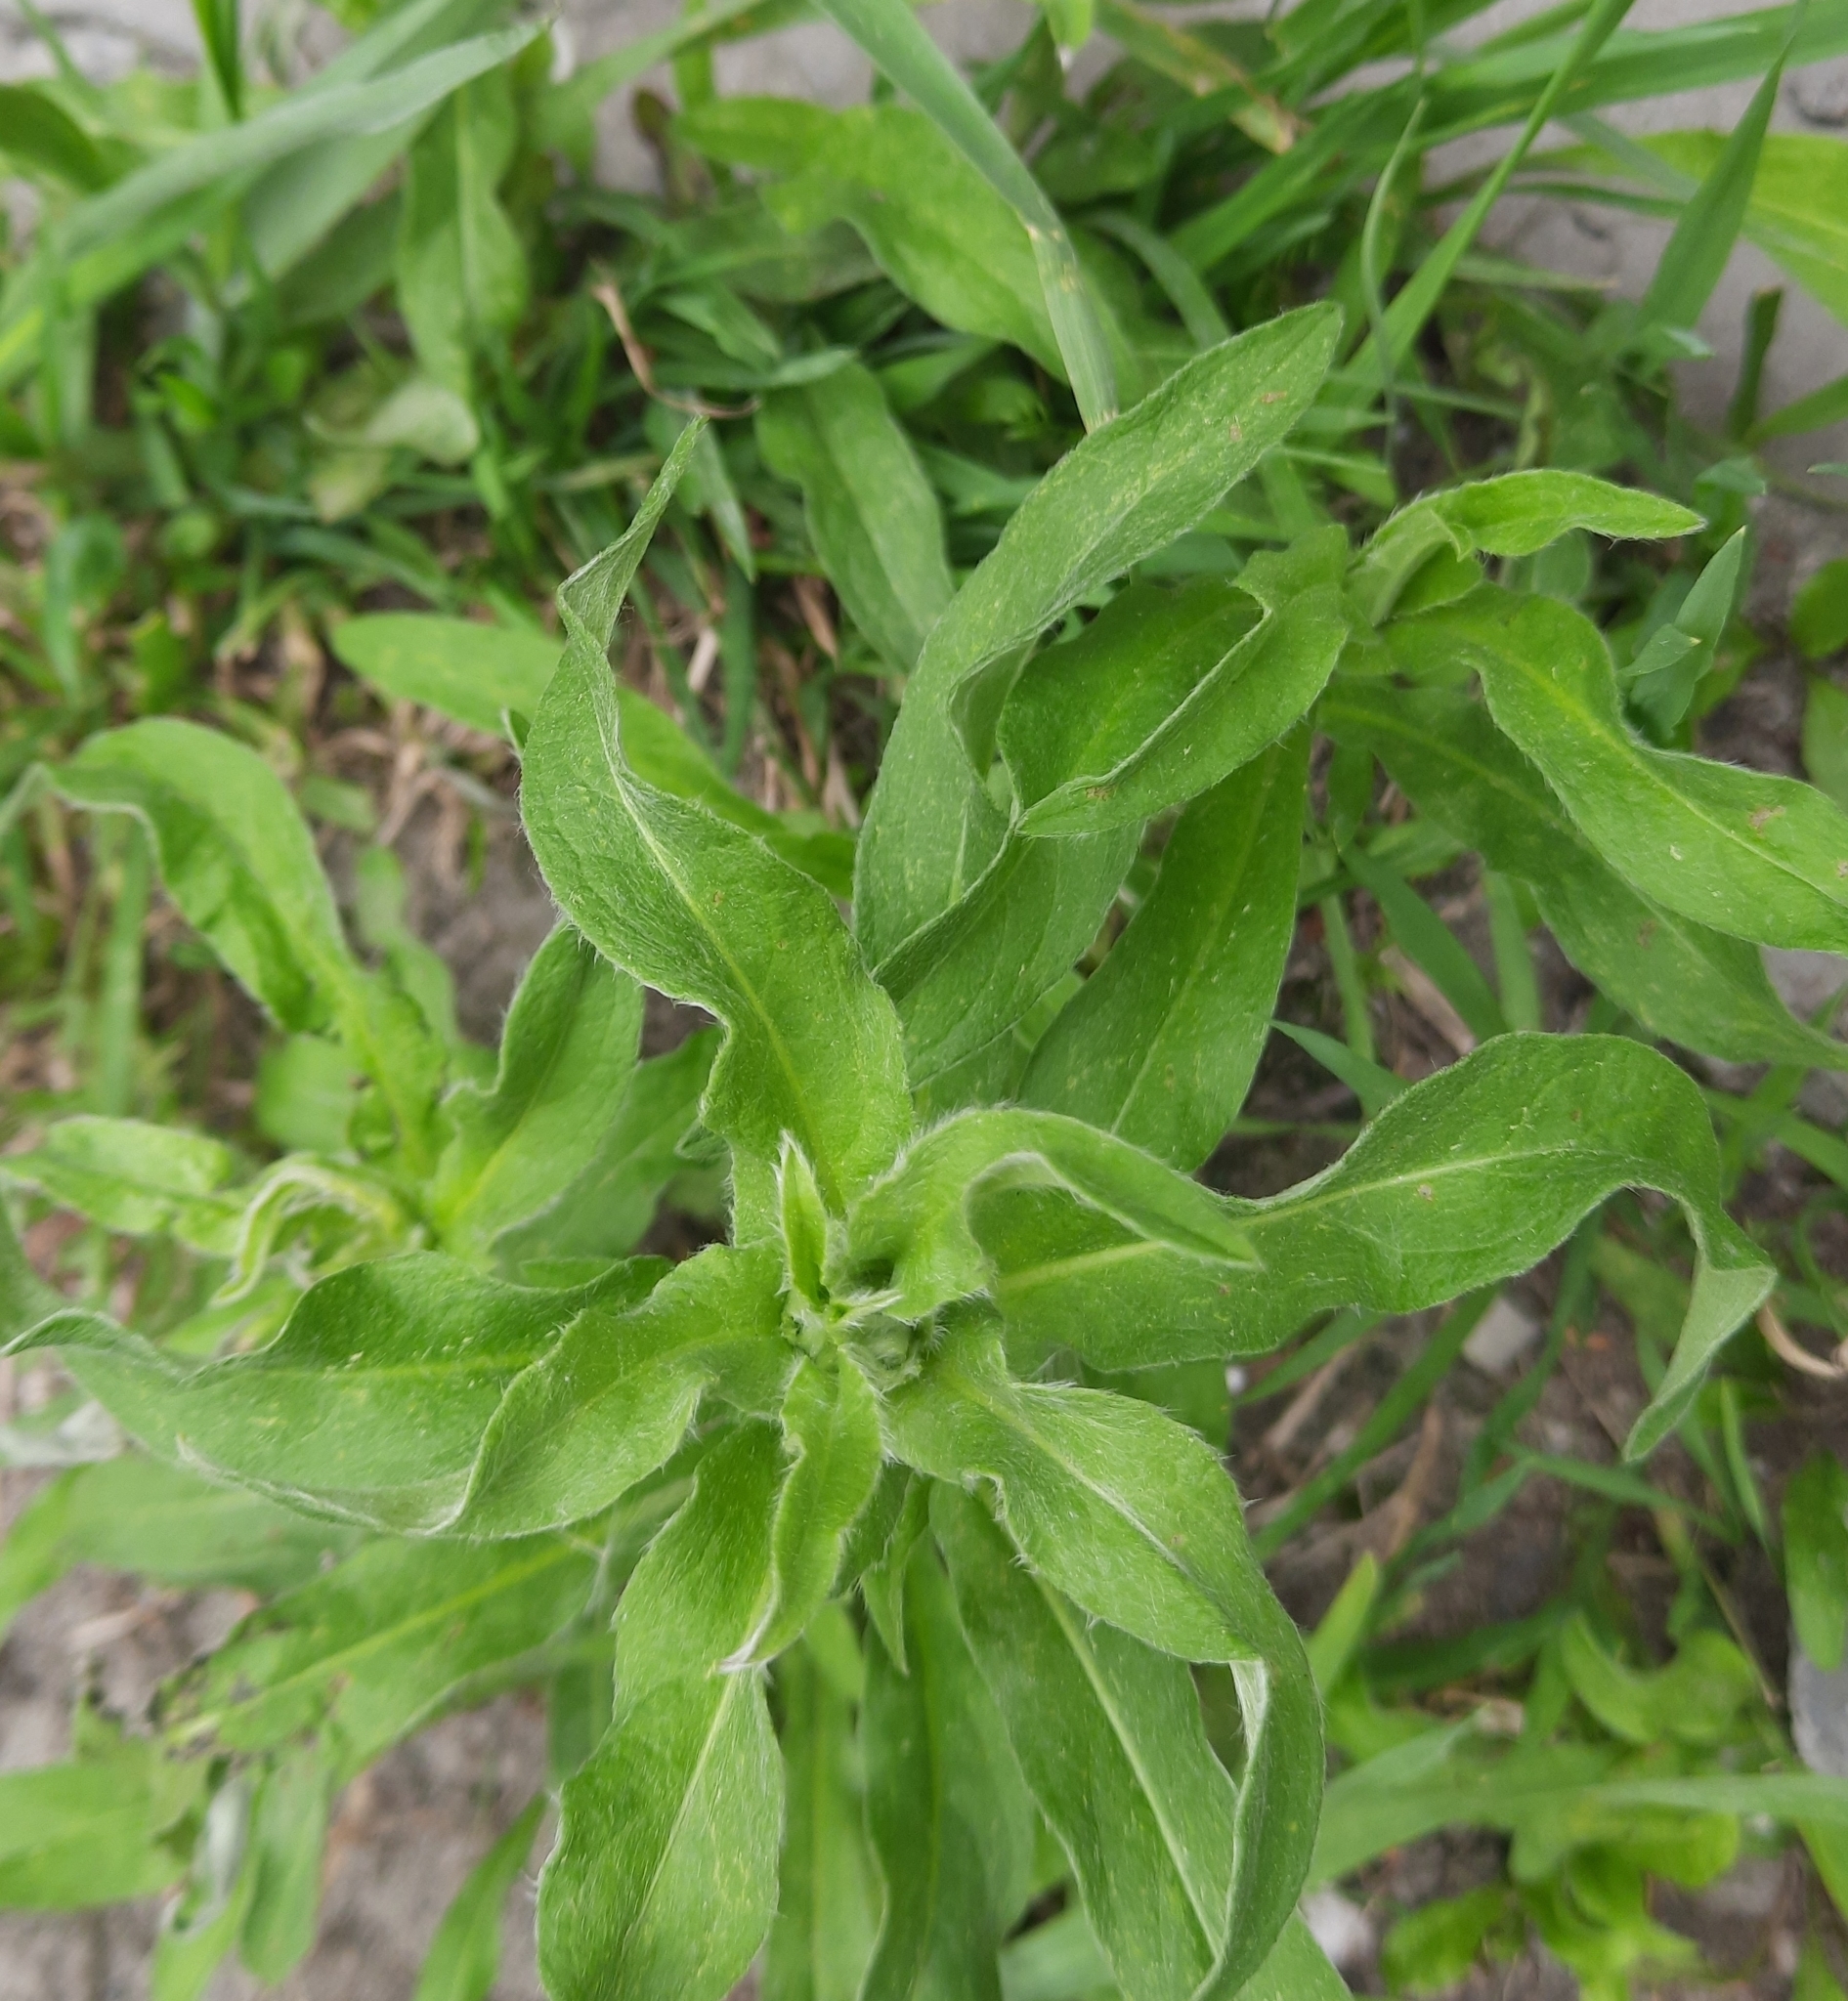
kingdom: Plantae
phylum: Tracheophyta
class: Magnoliopsida
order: Asterales
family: Asteraceae
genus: Pentanema
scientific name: Pentanema britannicum
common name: British elecampane
